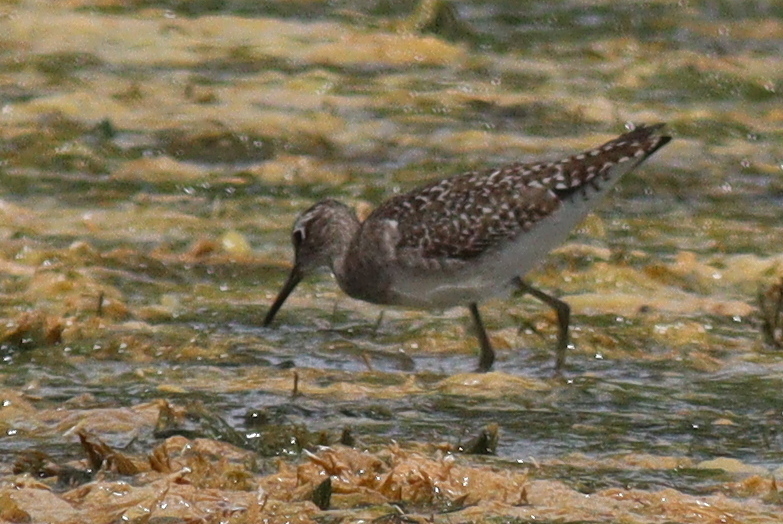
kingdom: Animalia
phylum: Chordata
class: Aves
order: Charadriiformes
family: Scolopacidae
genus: Tringa
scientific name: Tringa glareola
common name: Wood sandpiper
